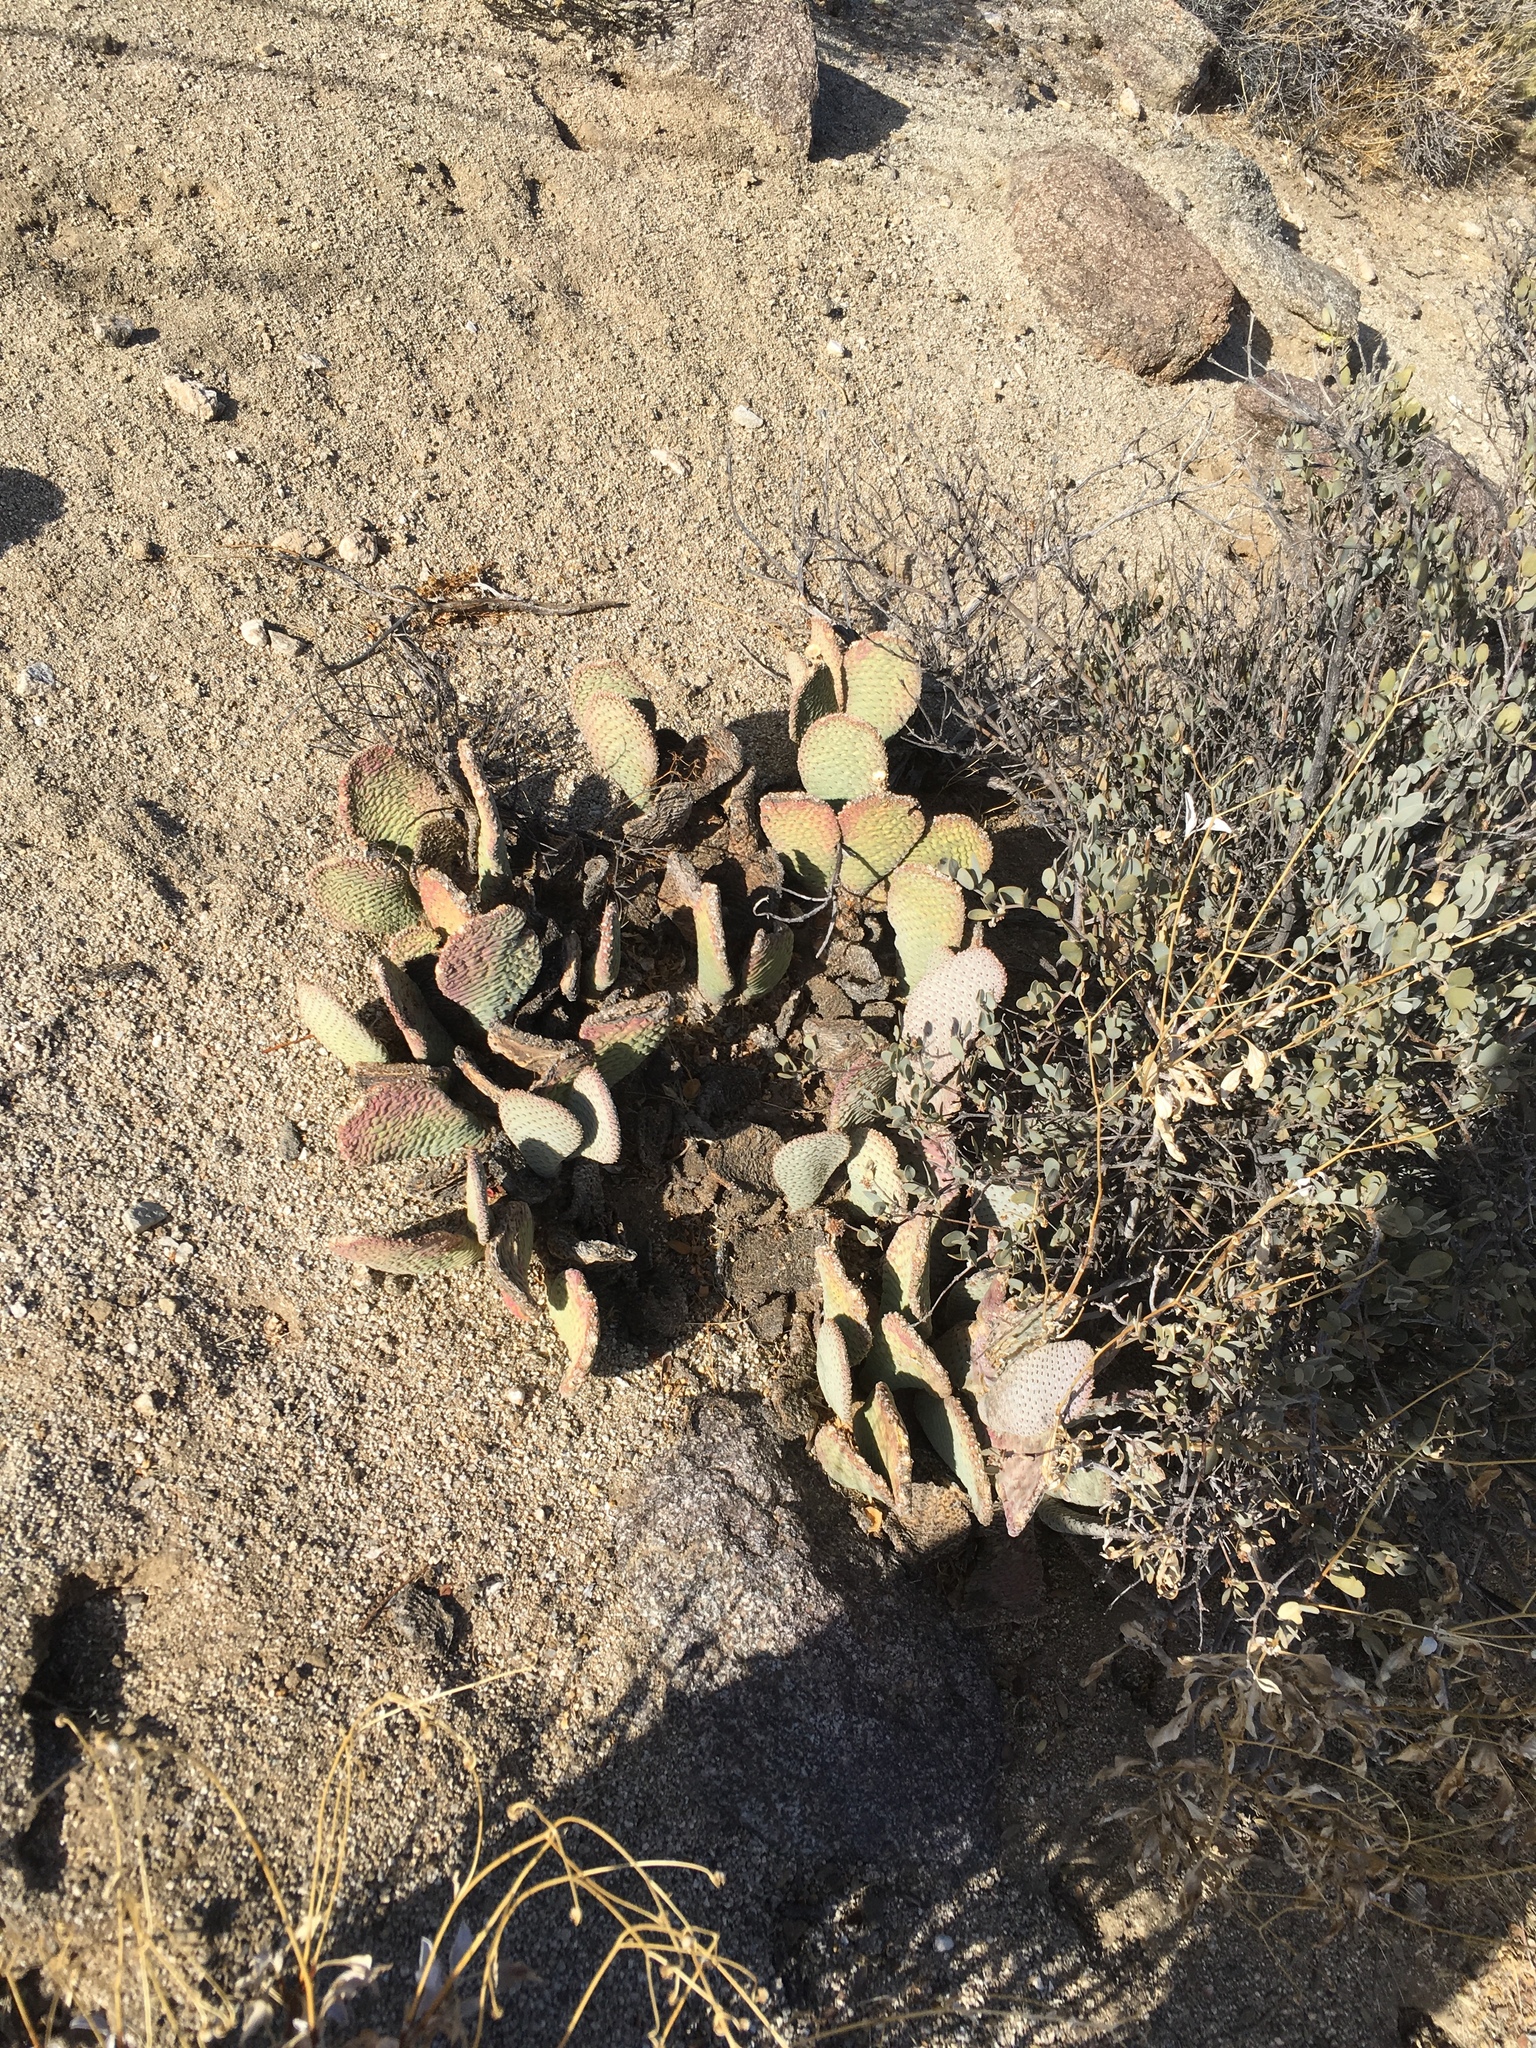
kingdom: Plantae
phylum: Tracheophyta
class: Magnoliopsida
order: Caryophyllales
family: Cactaceae
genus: Opuntia
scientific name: Opuntia basilaris
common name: Beavertail prickly-pear
